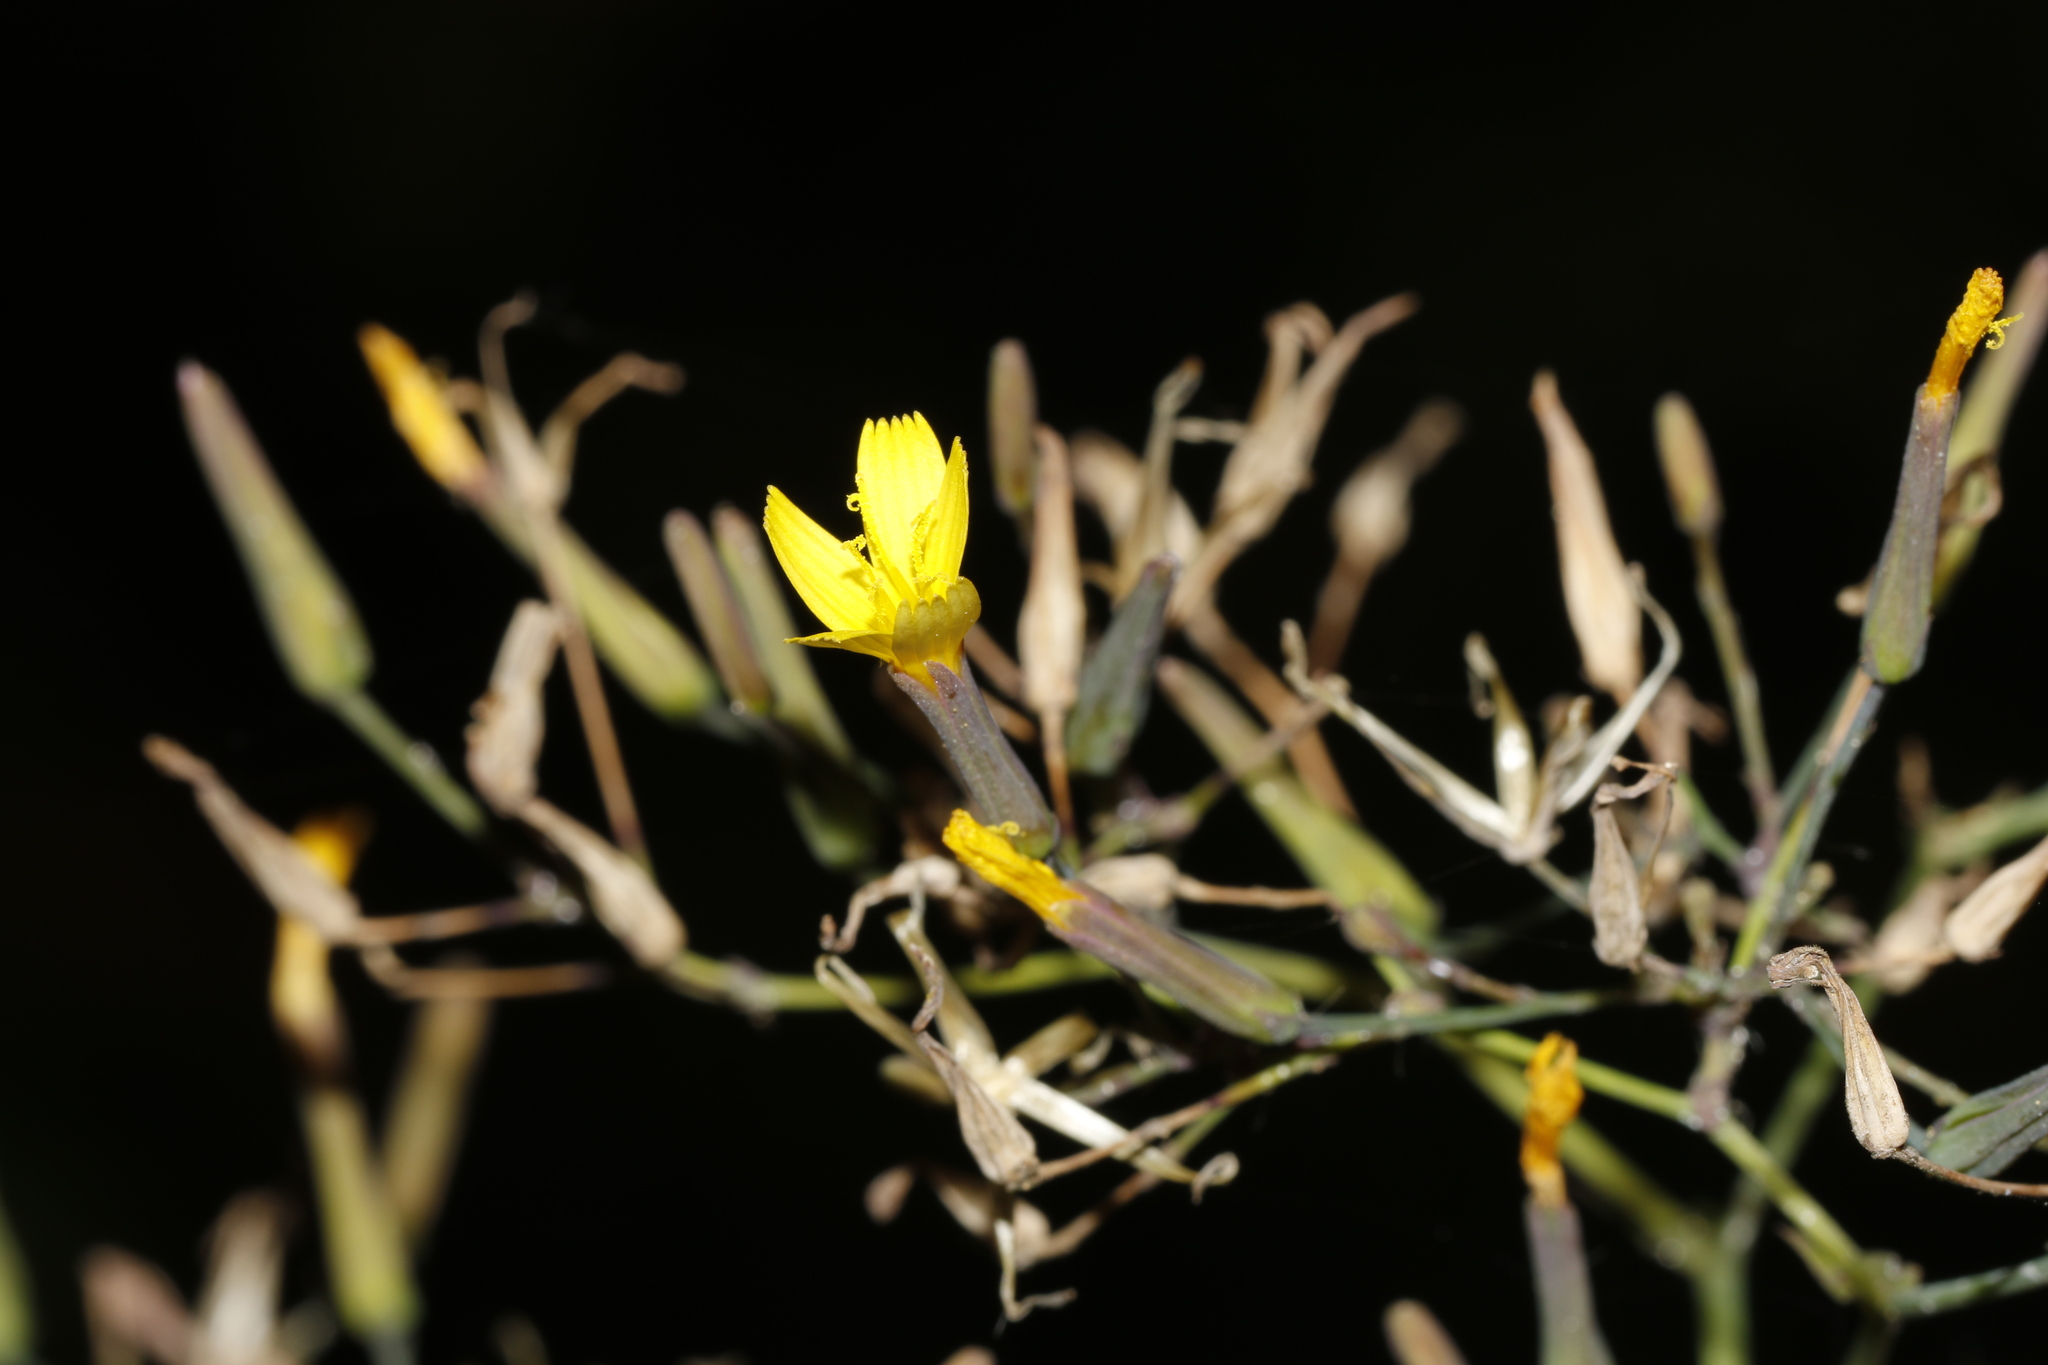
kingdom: Plantae
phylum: Tracheophyta
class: Magnoliopsida
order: Asterales
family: Asteraceae
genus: Mycelis
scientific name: Mycelis muralis
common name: Wall lettuce
